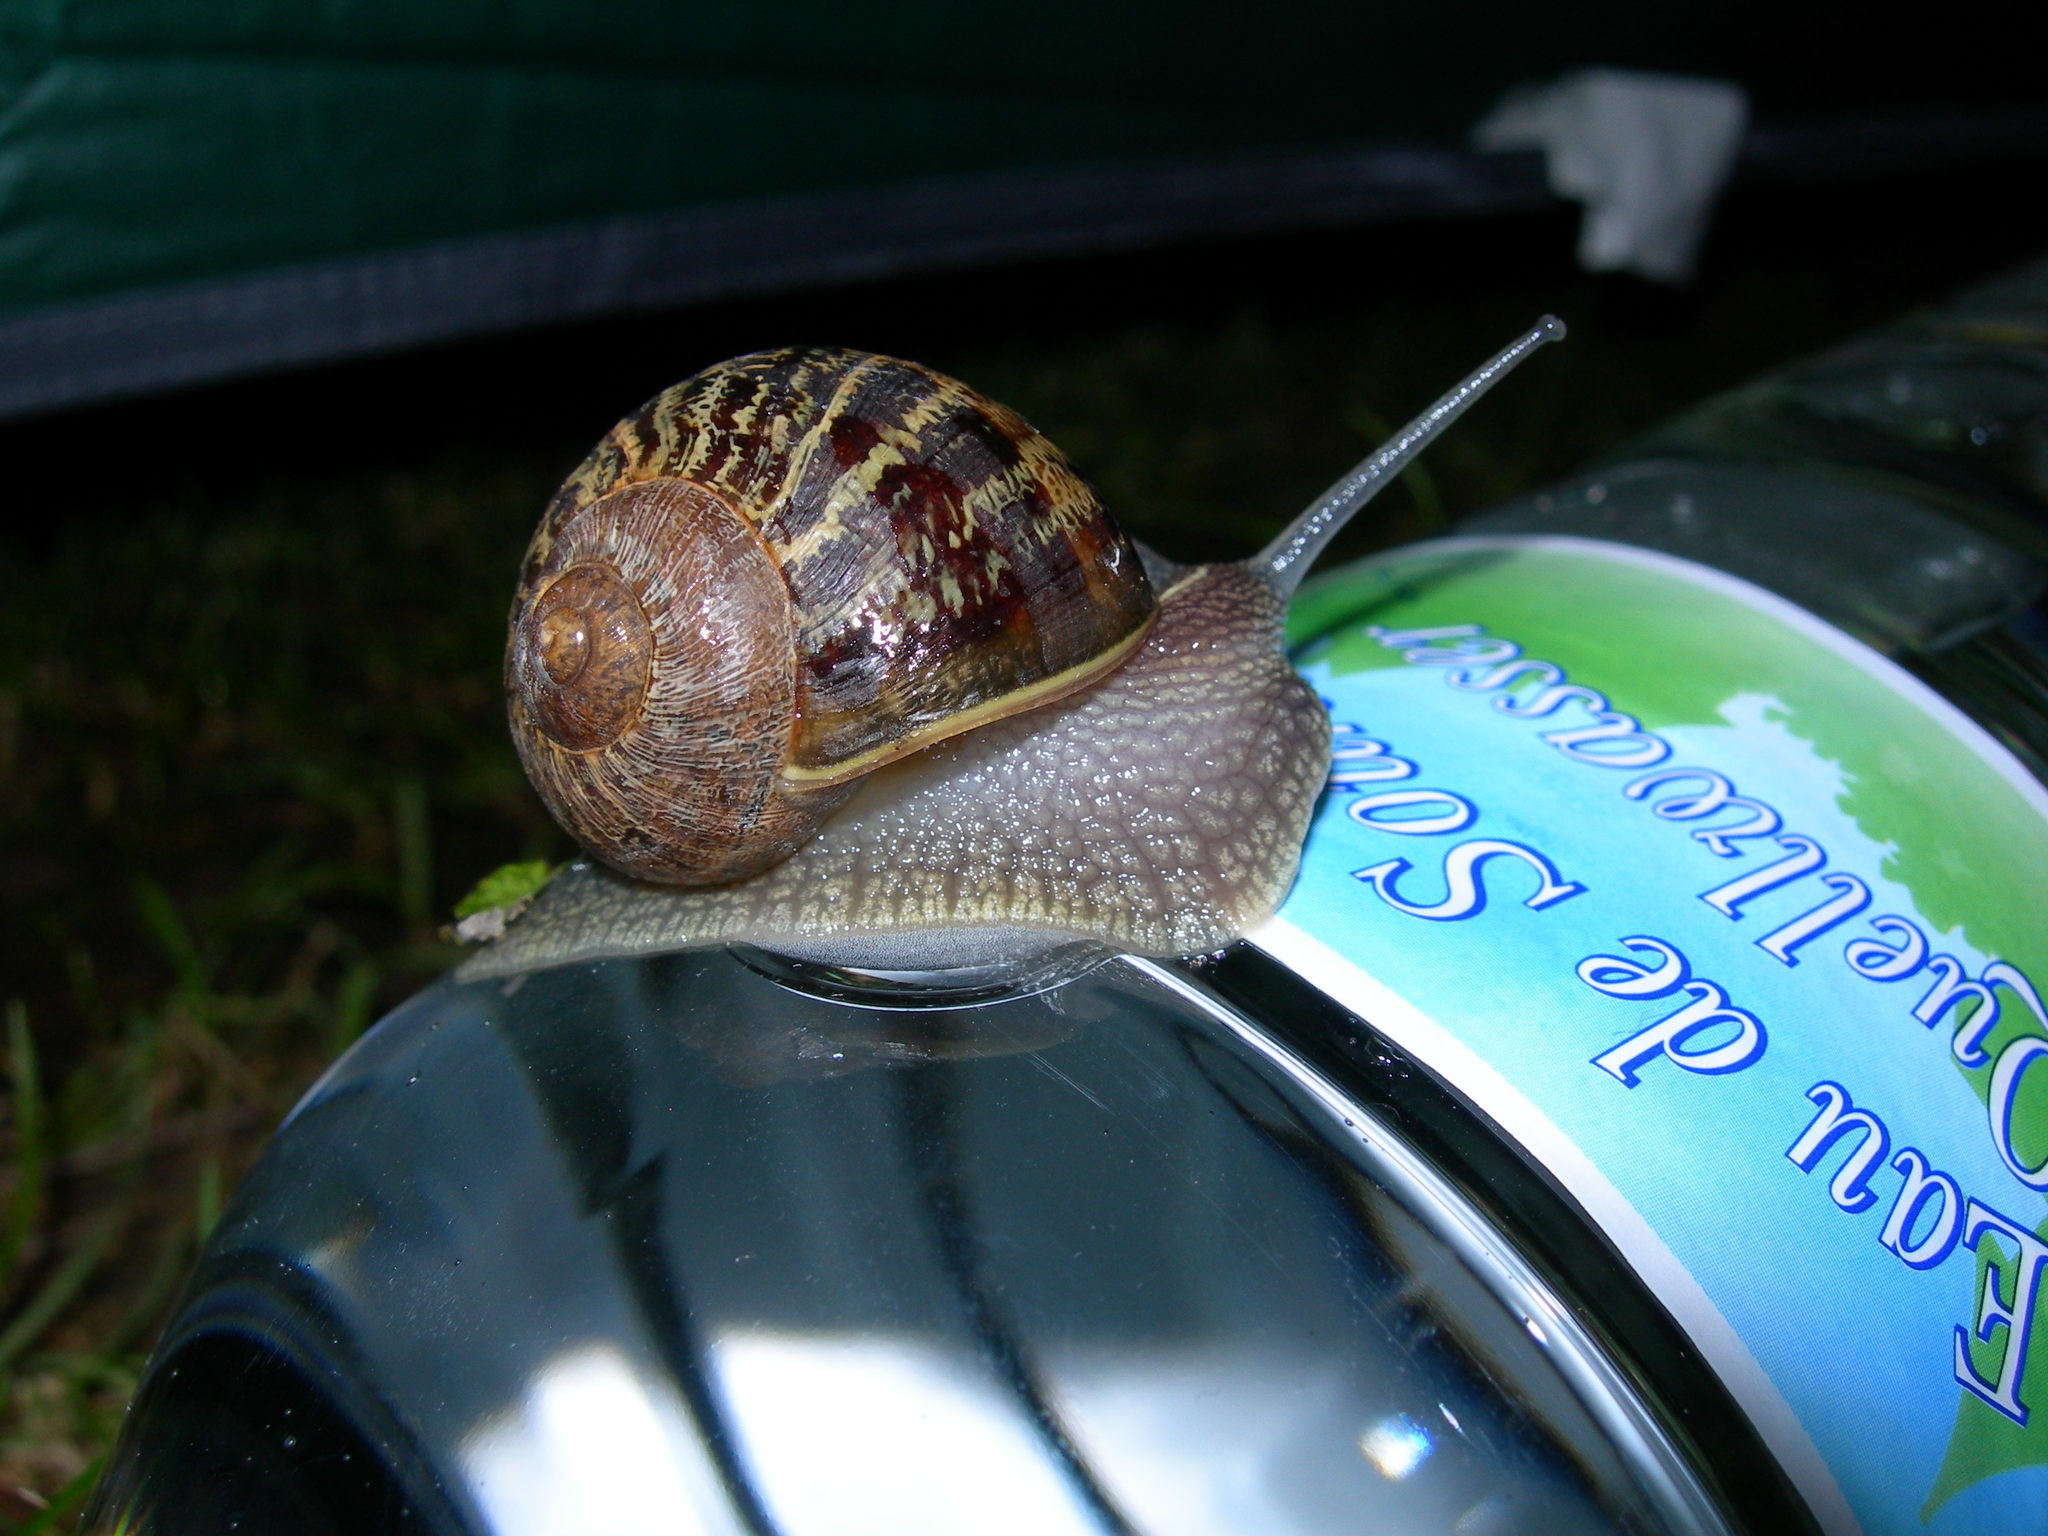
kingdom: Animalia
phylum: Mollusca
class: Gastropoda
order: Stylommatophora
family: Helicidae
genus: Cornu
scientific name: Cornu aspersum
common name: Brown garden snail
